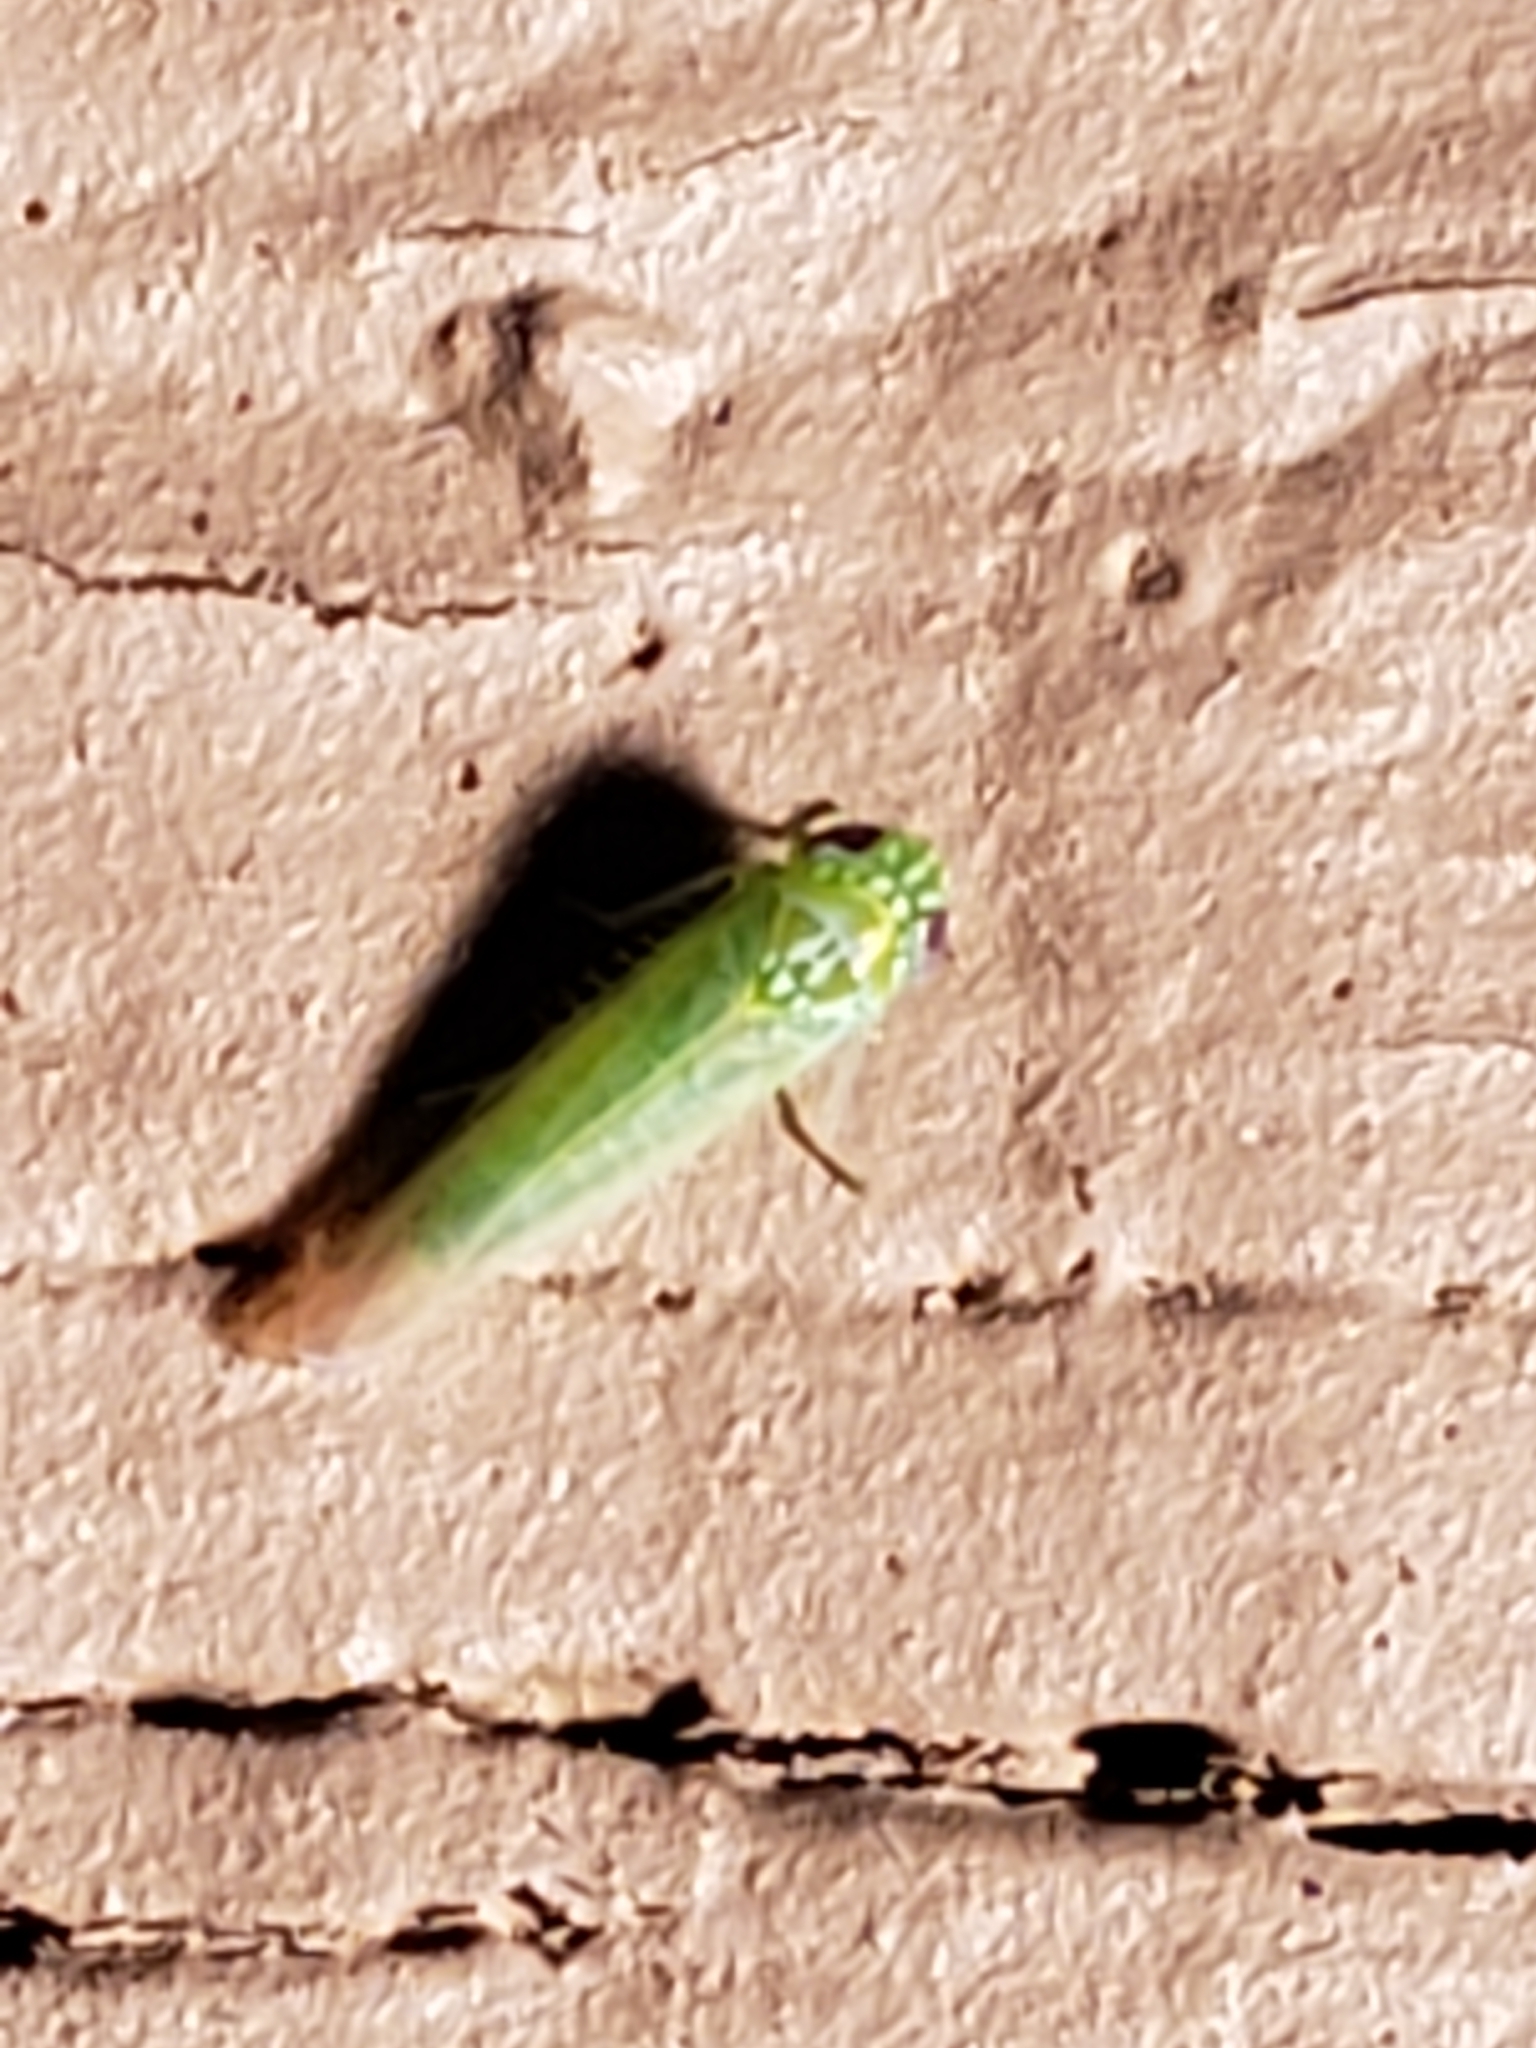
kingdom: Animalia
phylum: Arthropoda
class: Insecta
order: Hemiptera
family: Cicadellidae
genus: Empoasca
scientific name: Empoasca fabae
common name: Potato leafhopper
